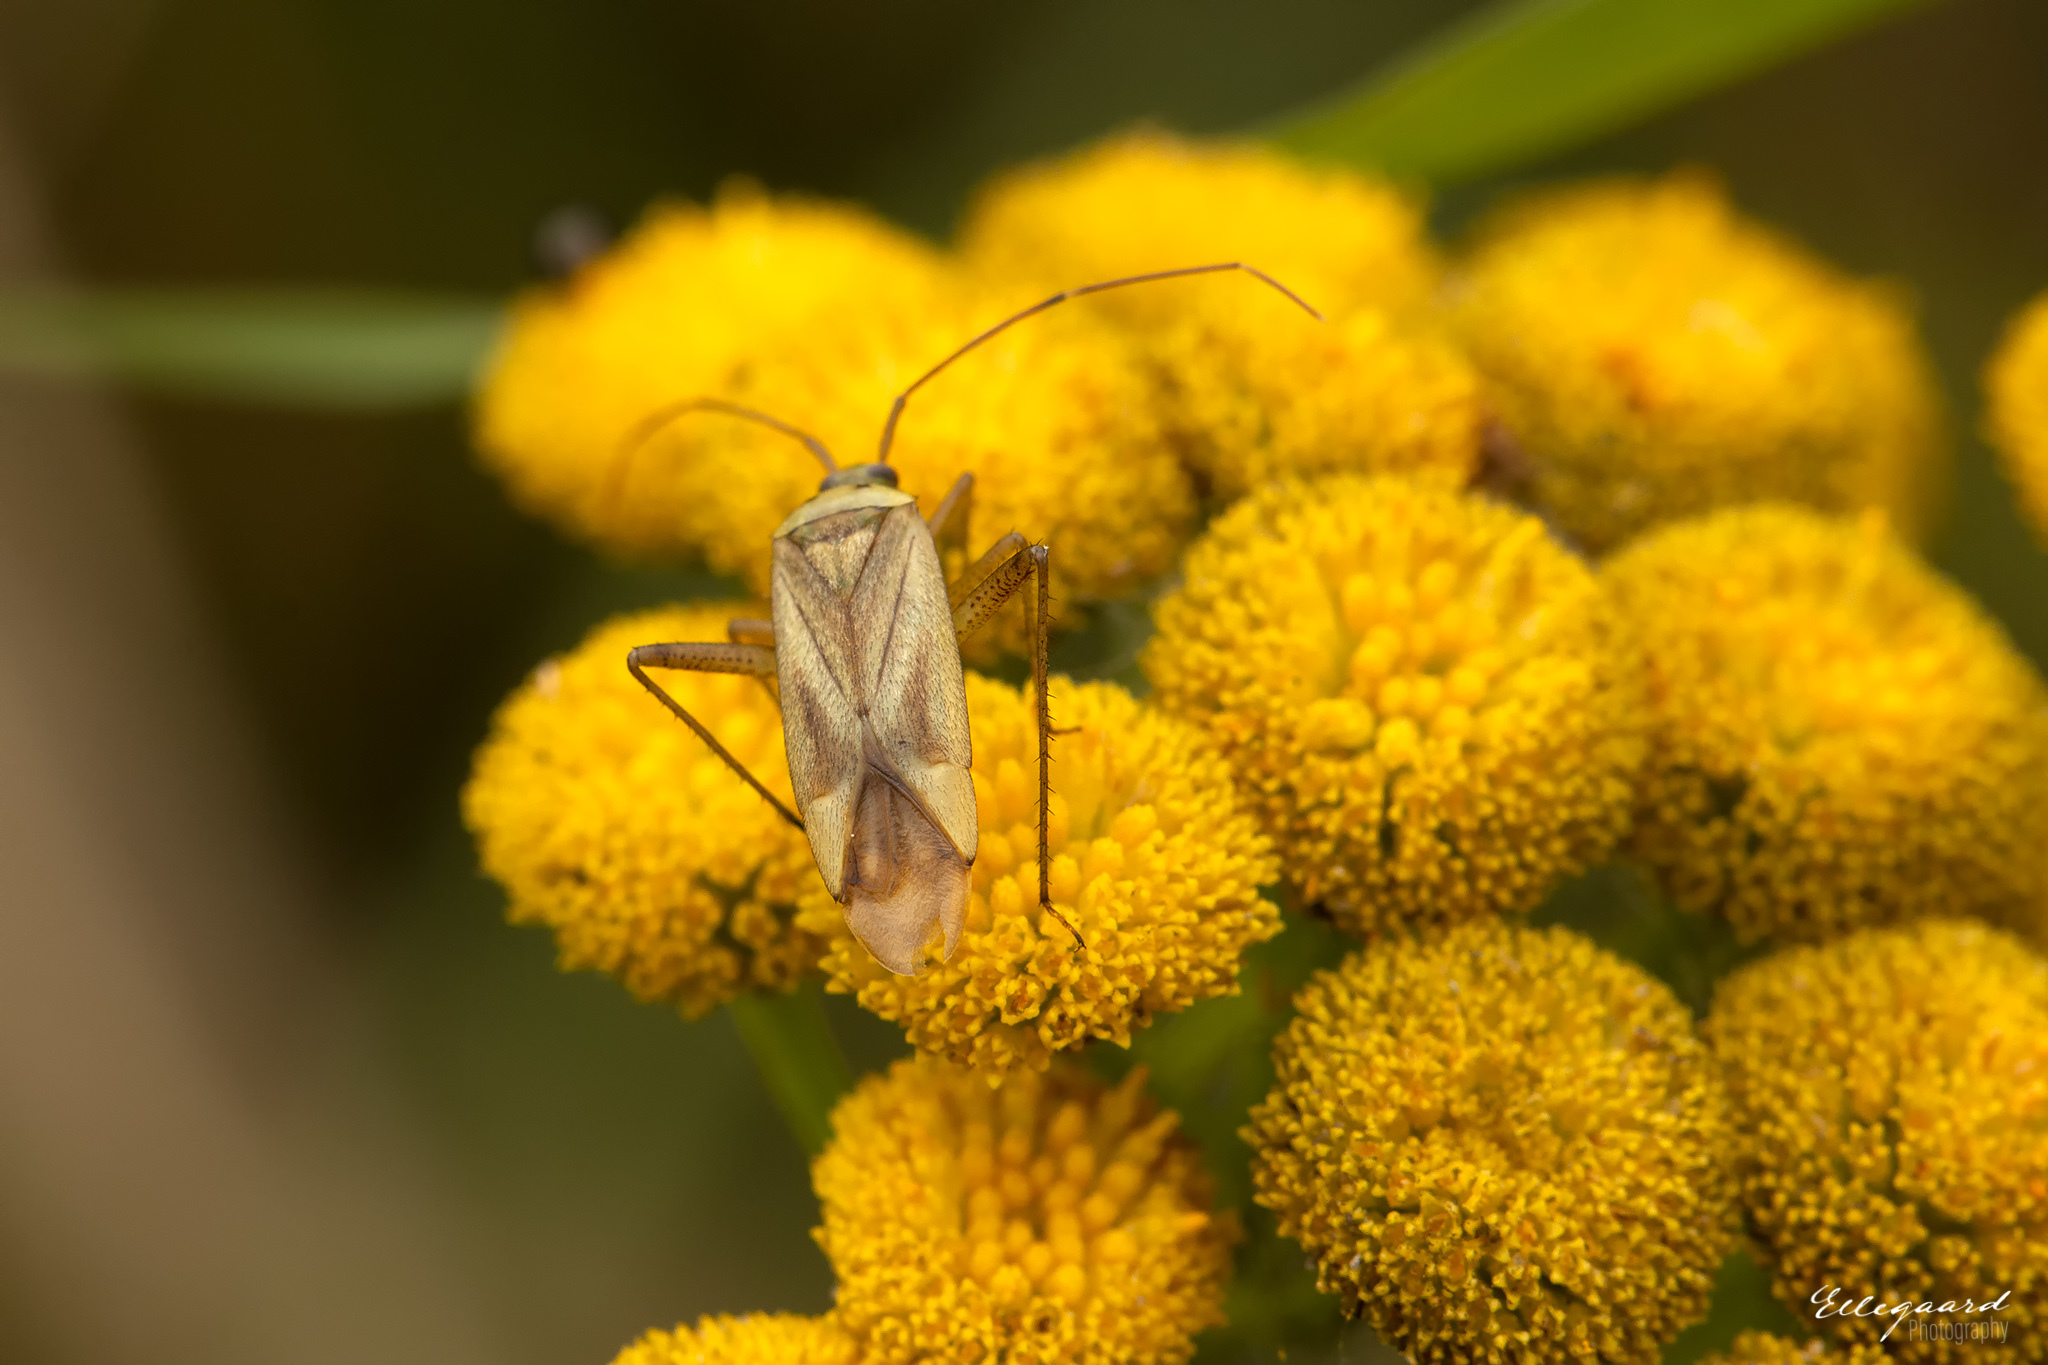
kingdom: Animalia
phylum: Arthropoda
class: Insecta
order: Hemiptera
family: Miridae
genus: Adelphocoris
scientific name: Adelphocoris quadripunctatus
